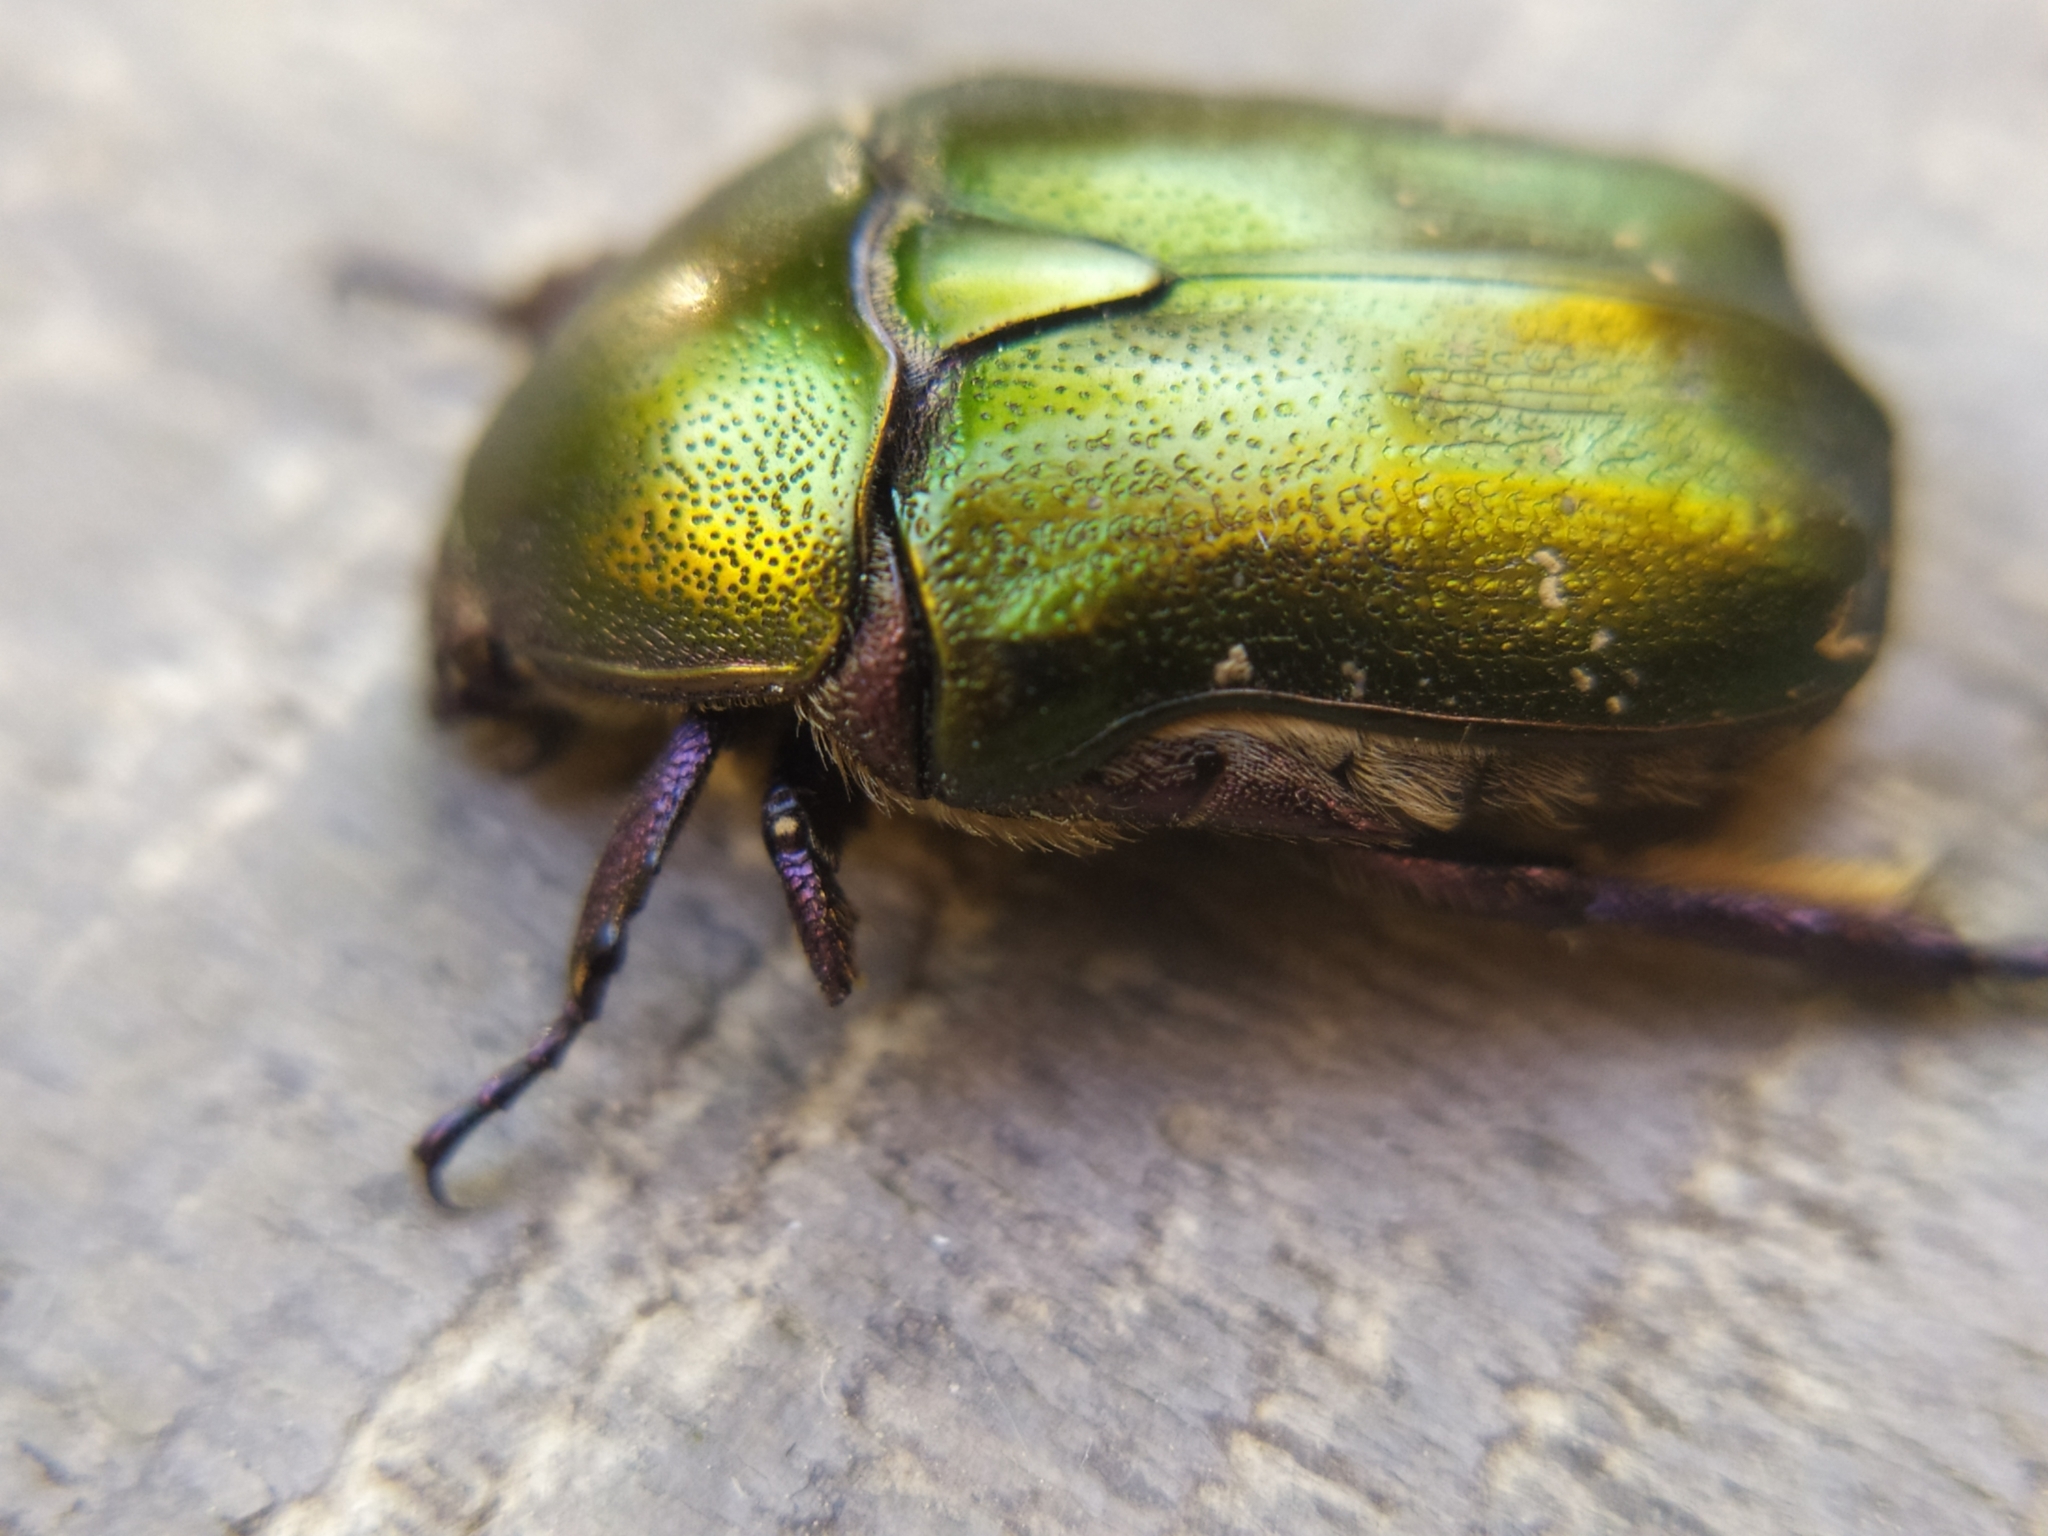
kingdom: Animalia
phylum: Arthropoda
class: Insecta
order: Coleoptera
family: Scarabaeidae
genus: Protaetia
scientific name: Protaetia cuprea
